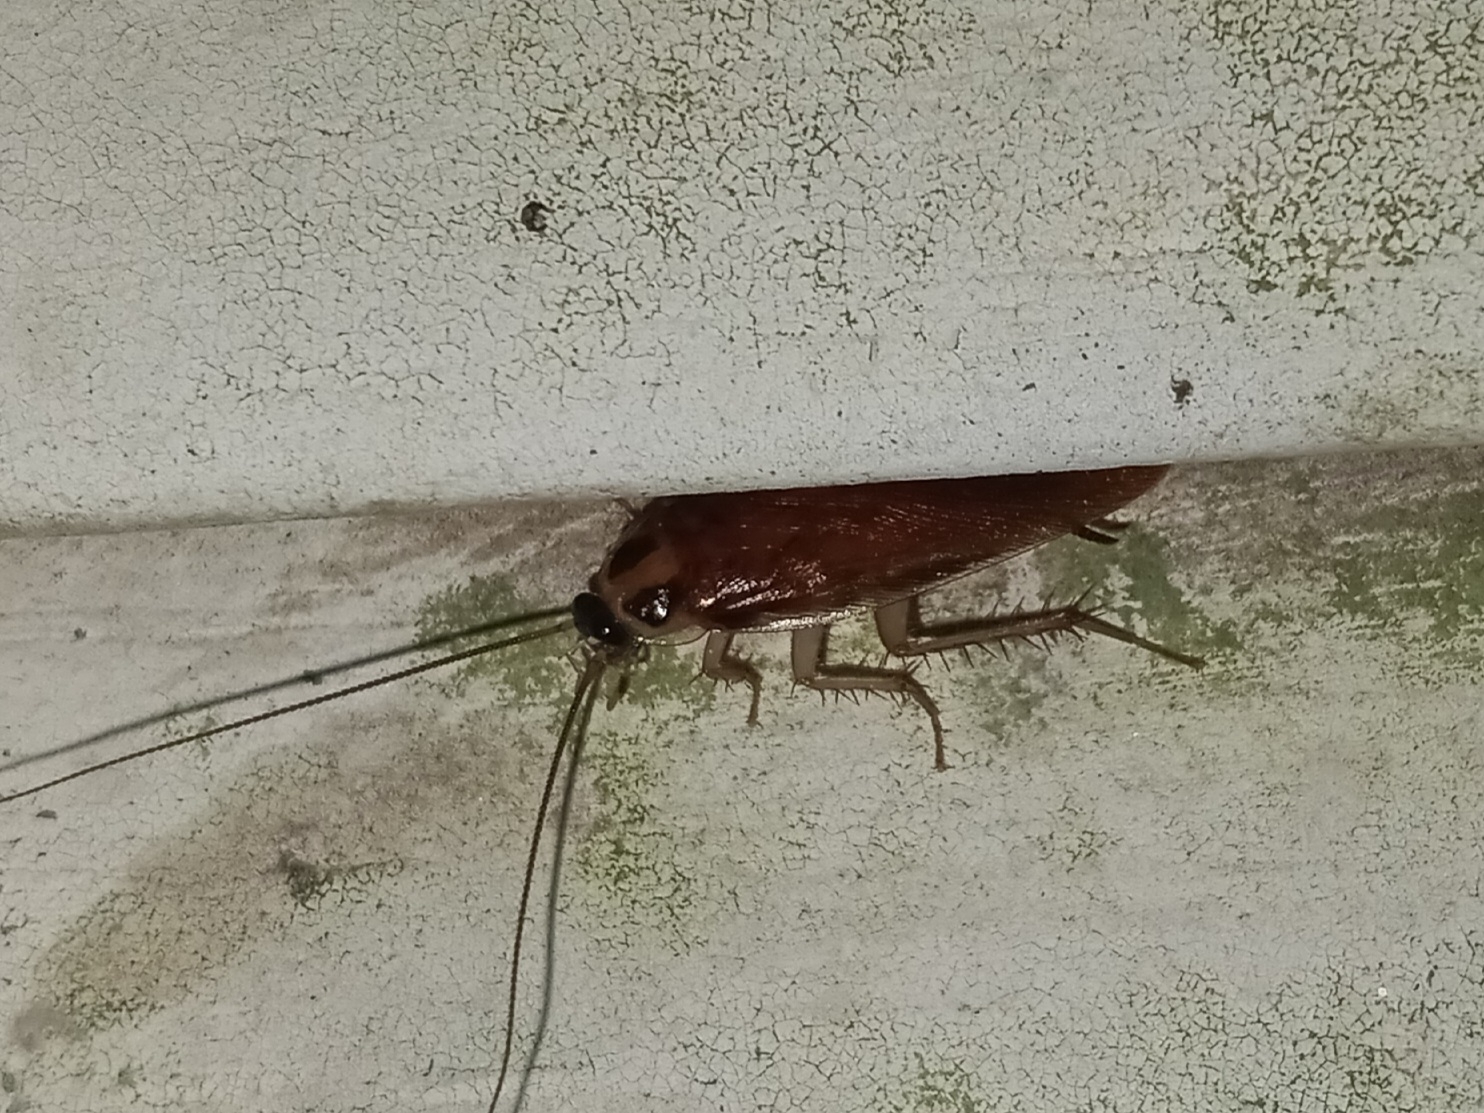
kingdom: Animalia
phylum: Arthropoda
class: Insecta
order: Blattodea
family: Ectobiidae
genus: Ischnoptera
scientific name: Ischnoptera bilunata
